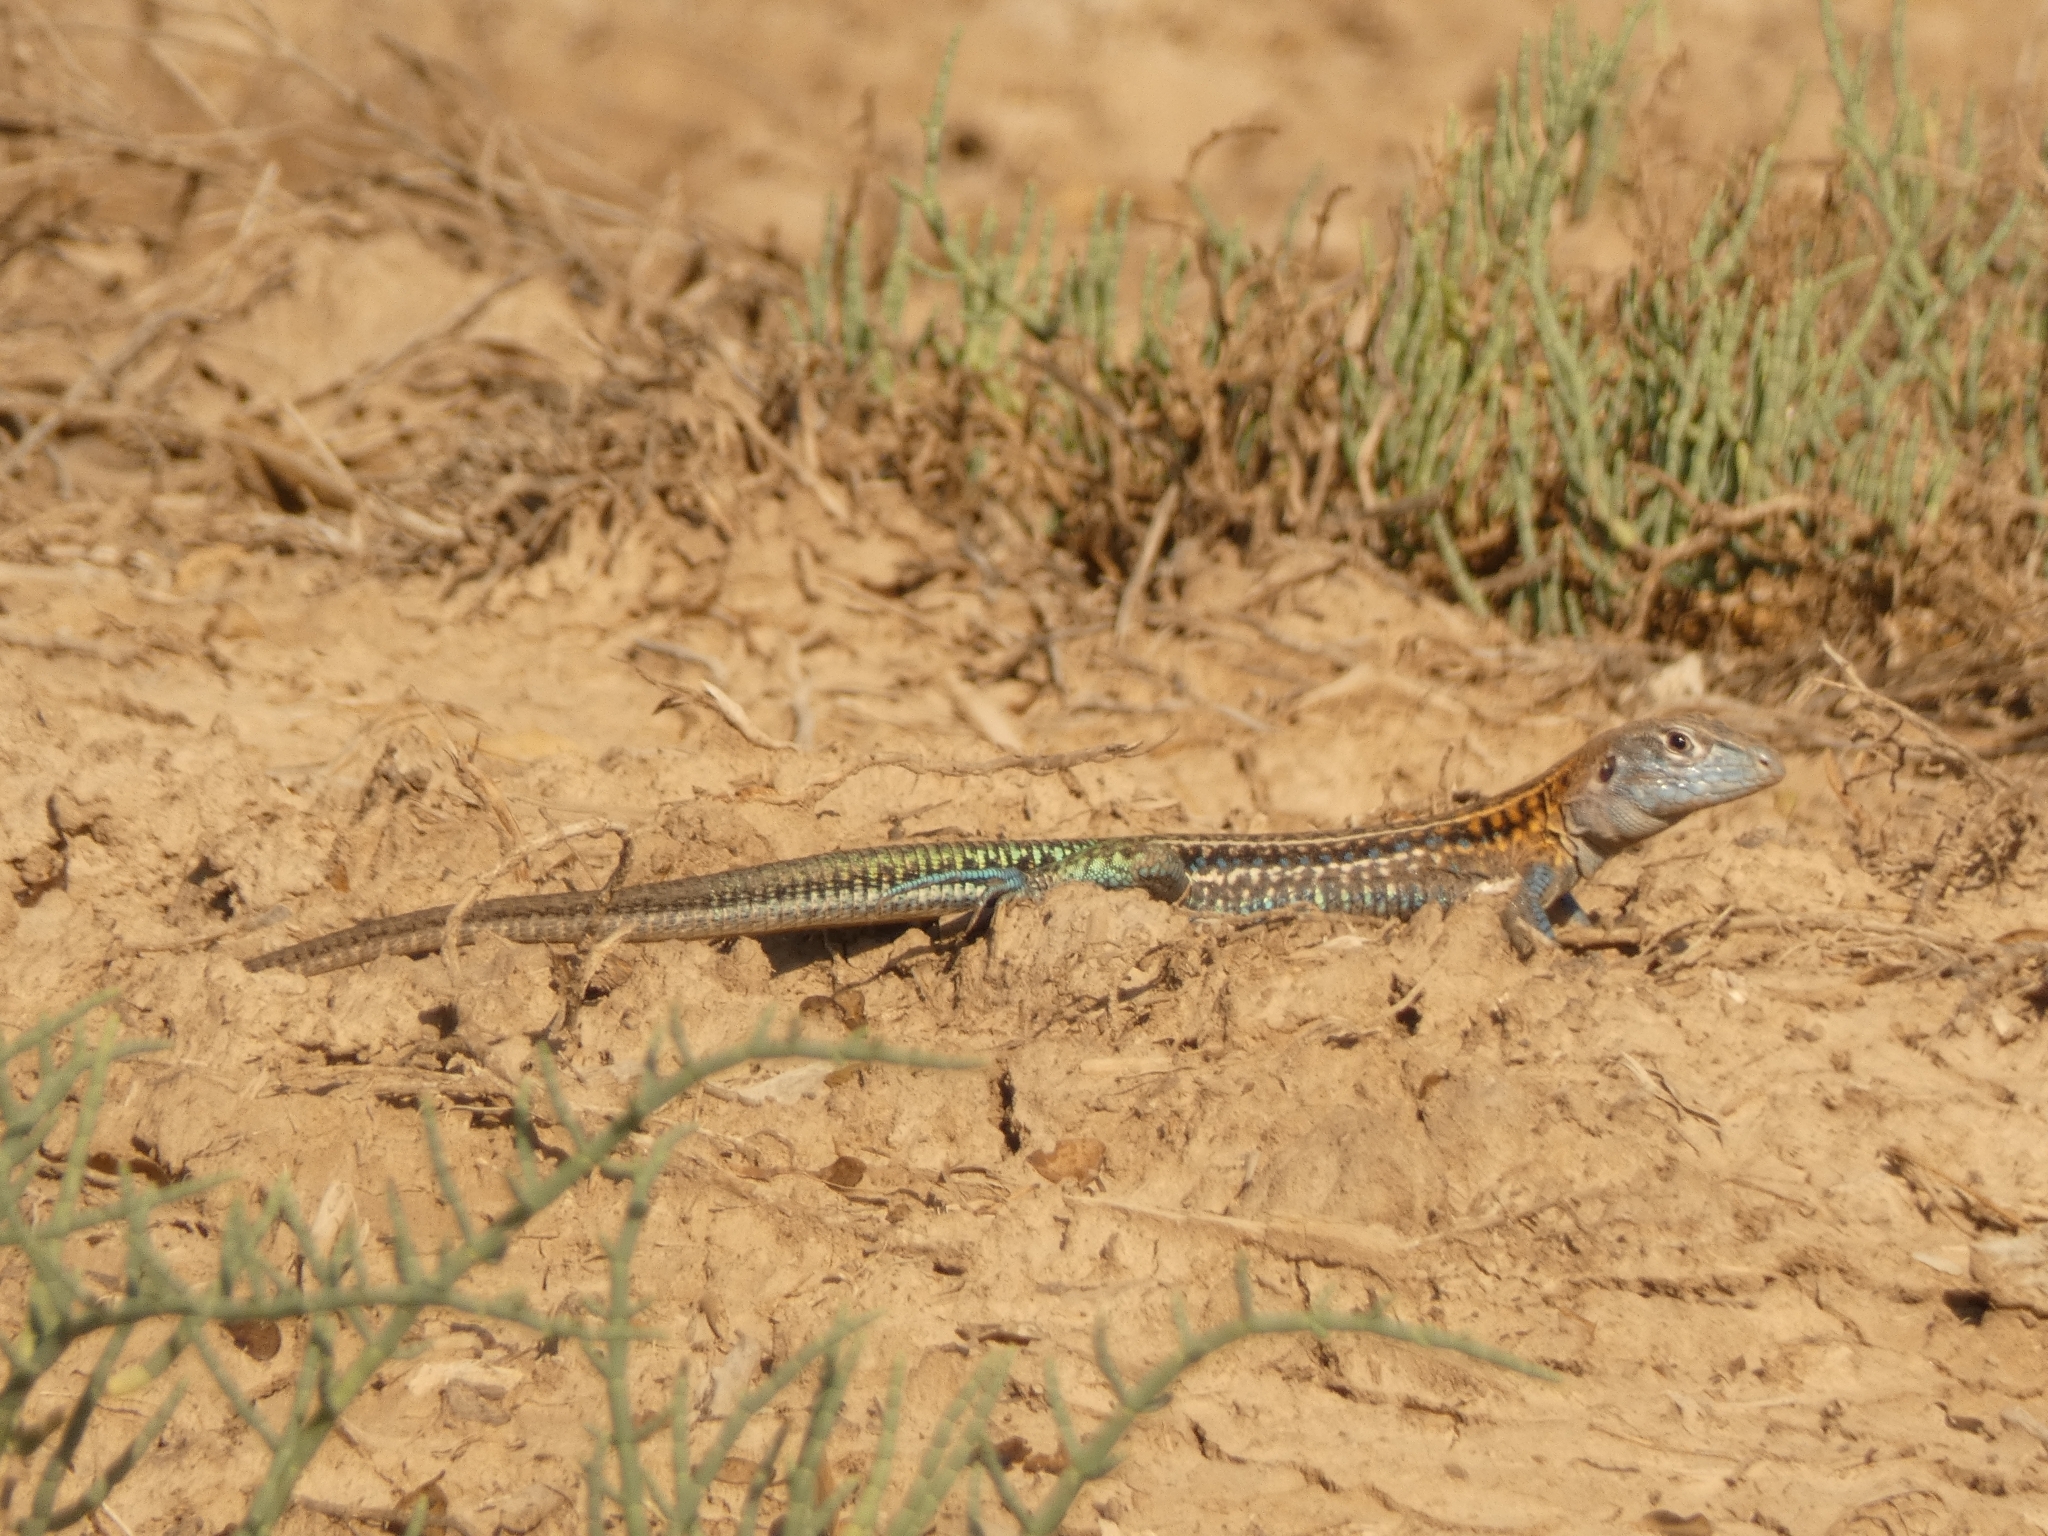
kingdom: Animalia
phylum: Chordata
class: Squamata
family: Teiidae
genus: Teius
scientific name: Teius teyou
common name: Four-toed tegu
